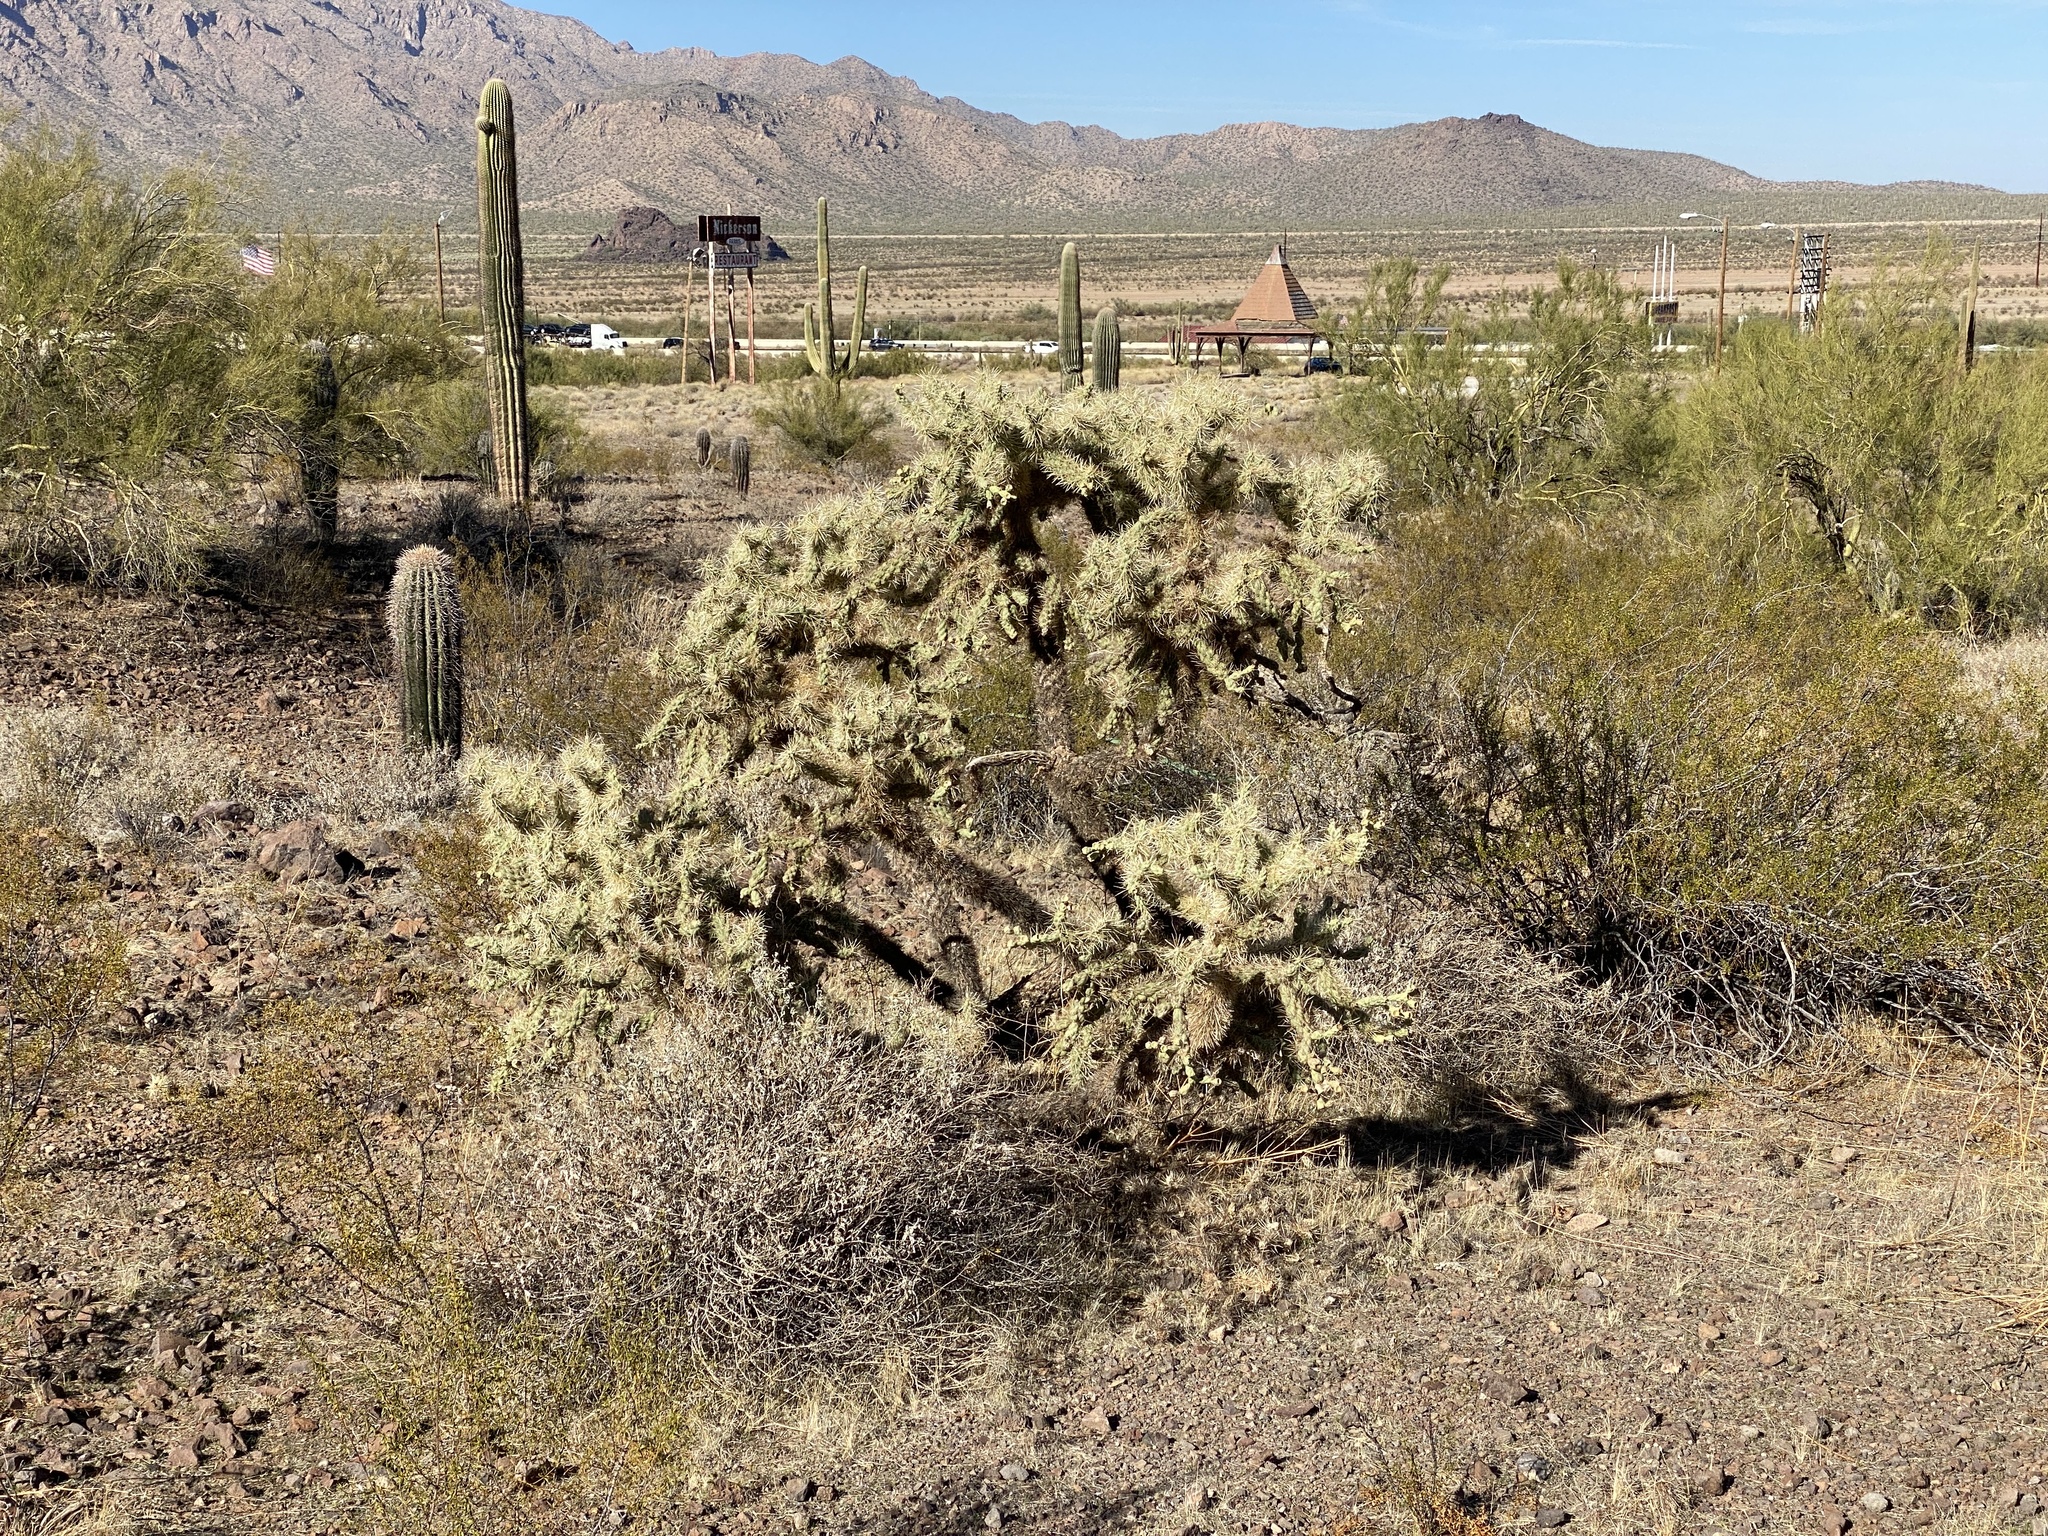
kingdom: Plantae
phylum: Tracheophyta
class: Magnoliopsida
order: Caryophyllales
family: Cactaceae
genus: Cylindropuntia
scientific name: Cylindropuntia fulgida
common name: Jumping cholla
